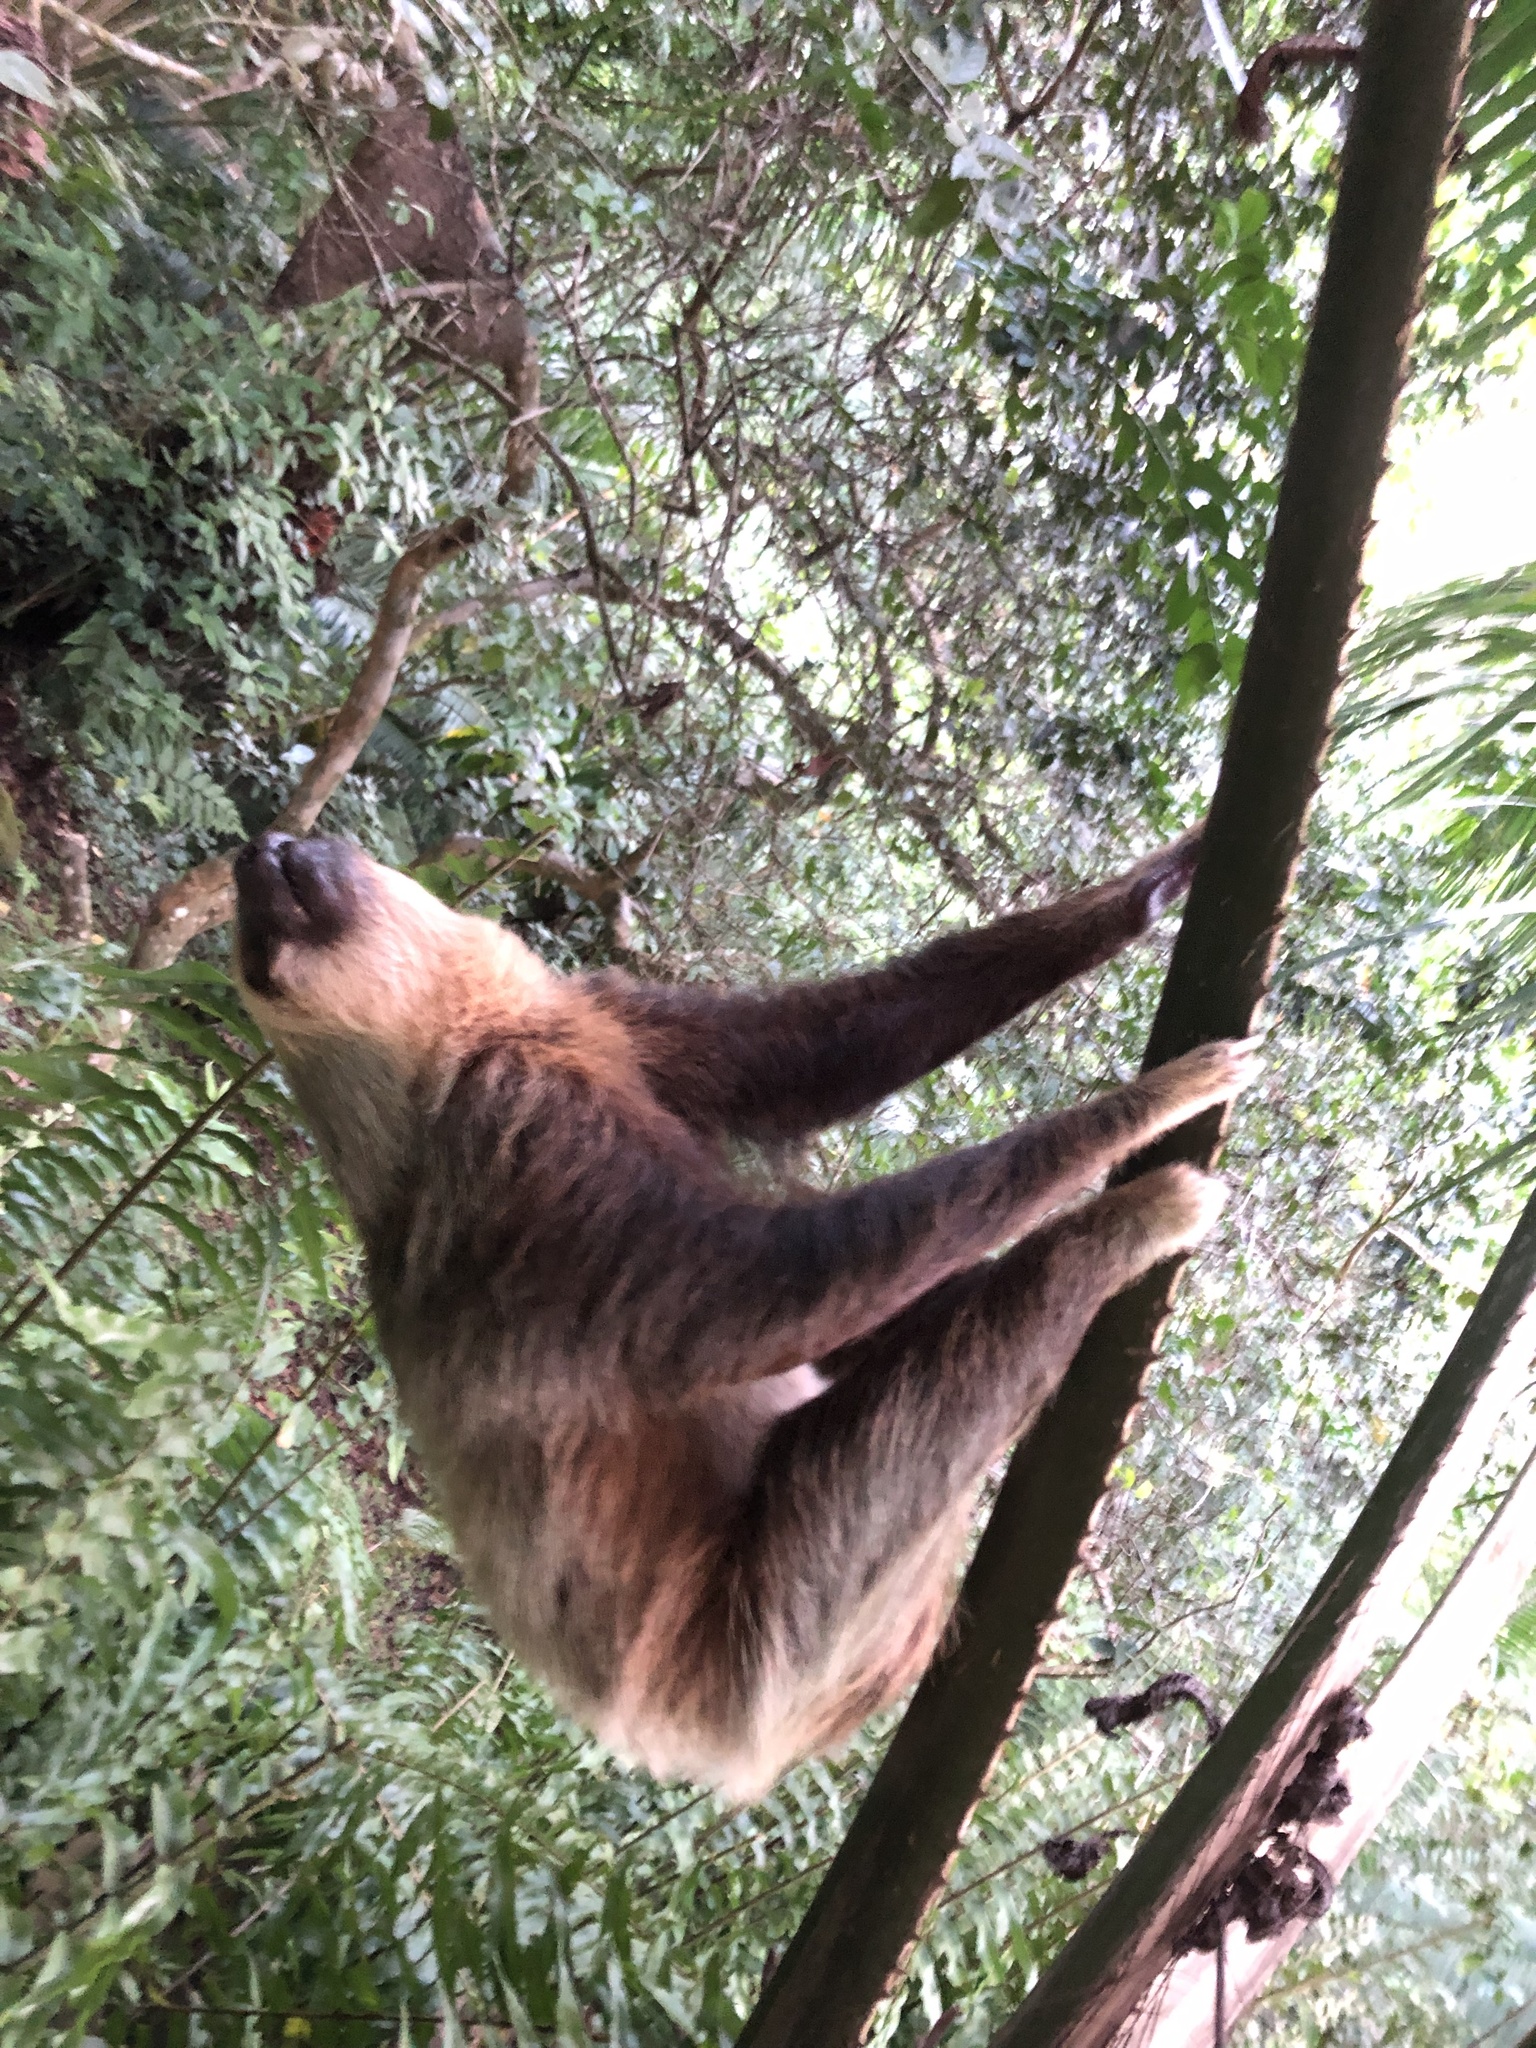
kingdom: Animalia
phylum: Chordata
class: Mammalia
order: Pilosa
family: Megalonychidae
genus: Choloepus
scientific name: Choloepus hoffmanni
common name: Hoffmann's two-toed sloth
